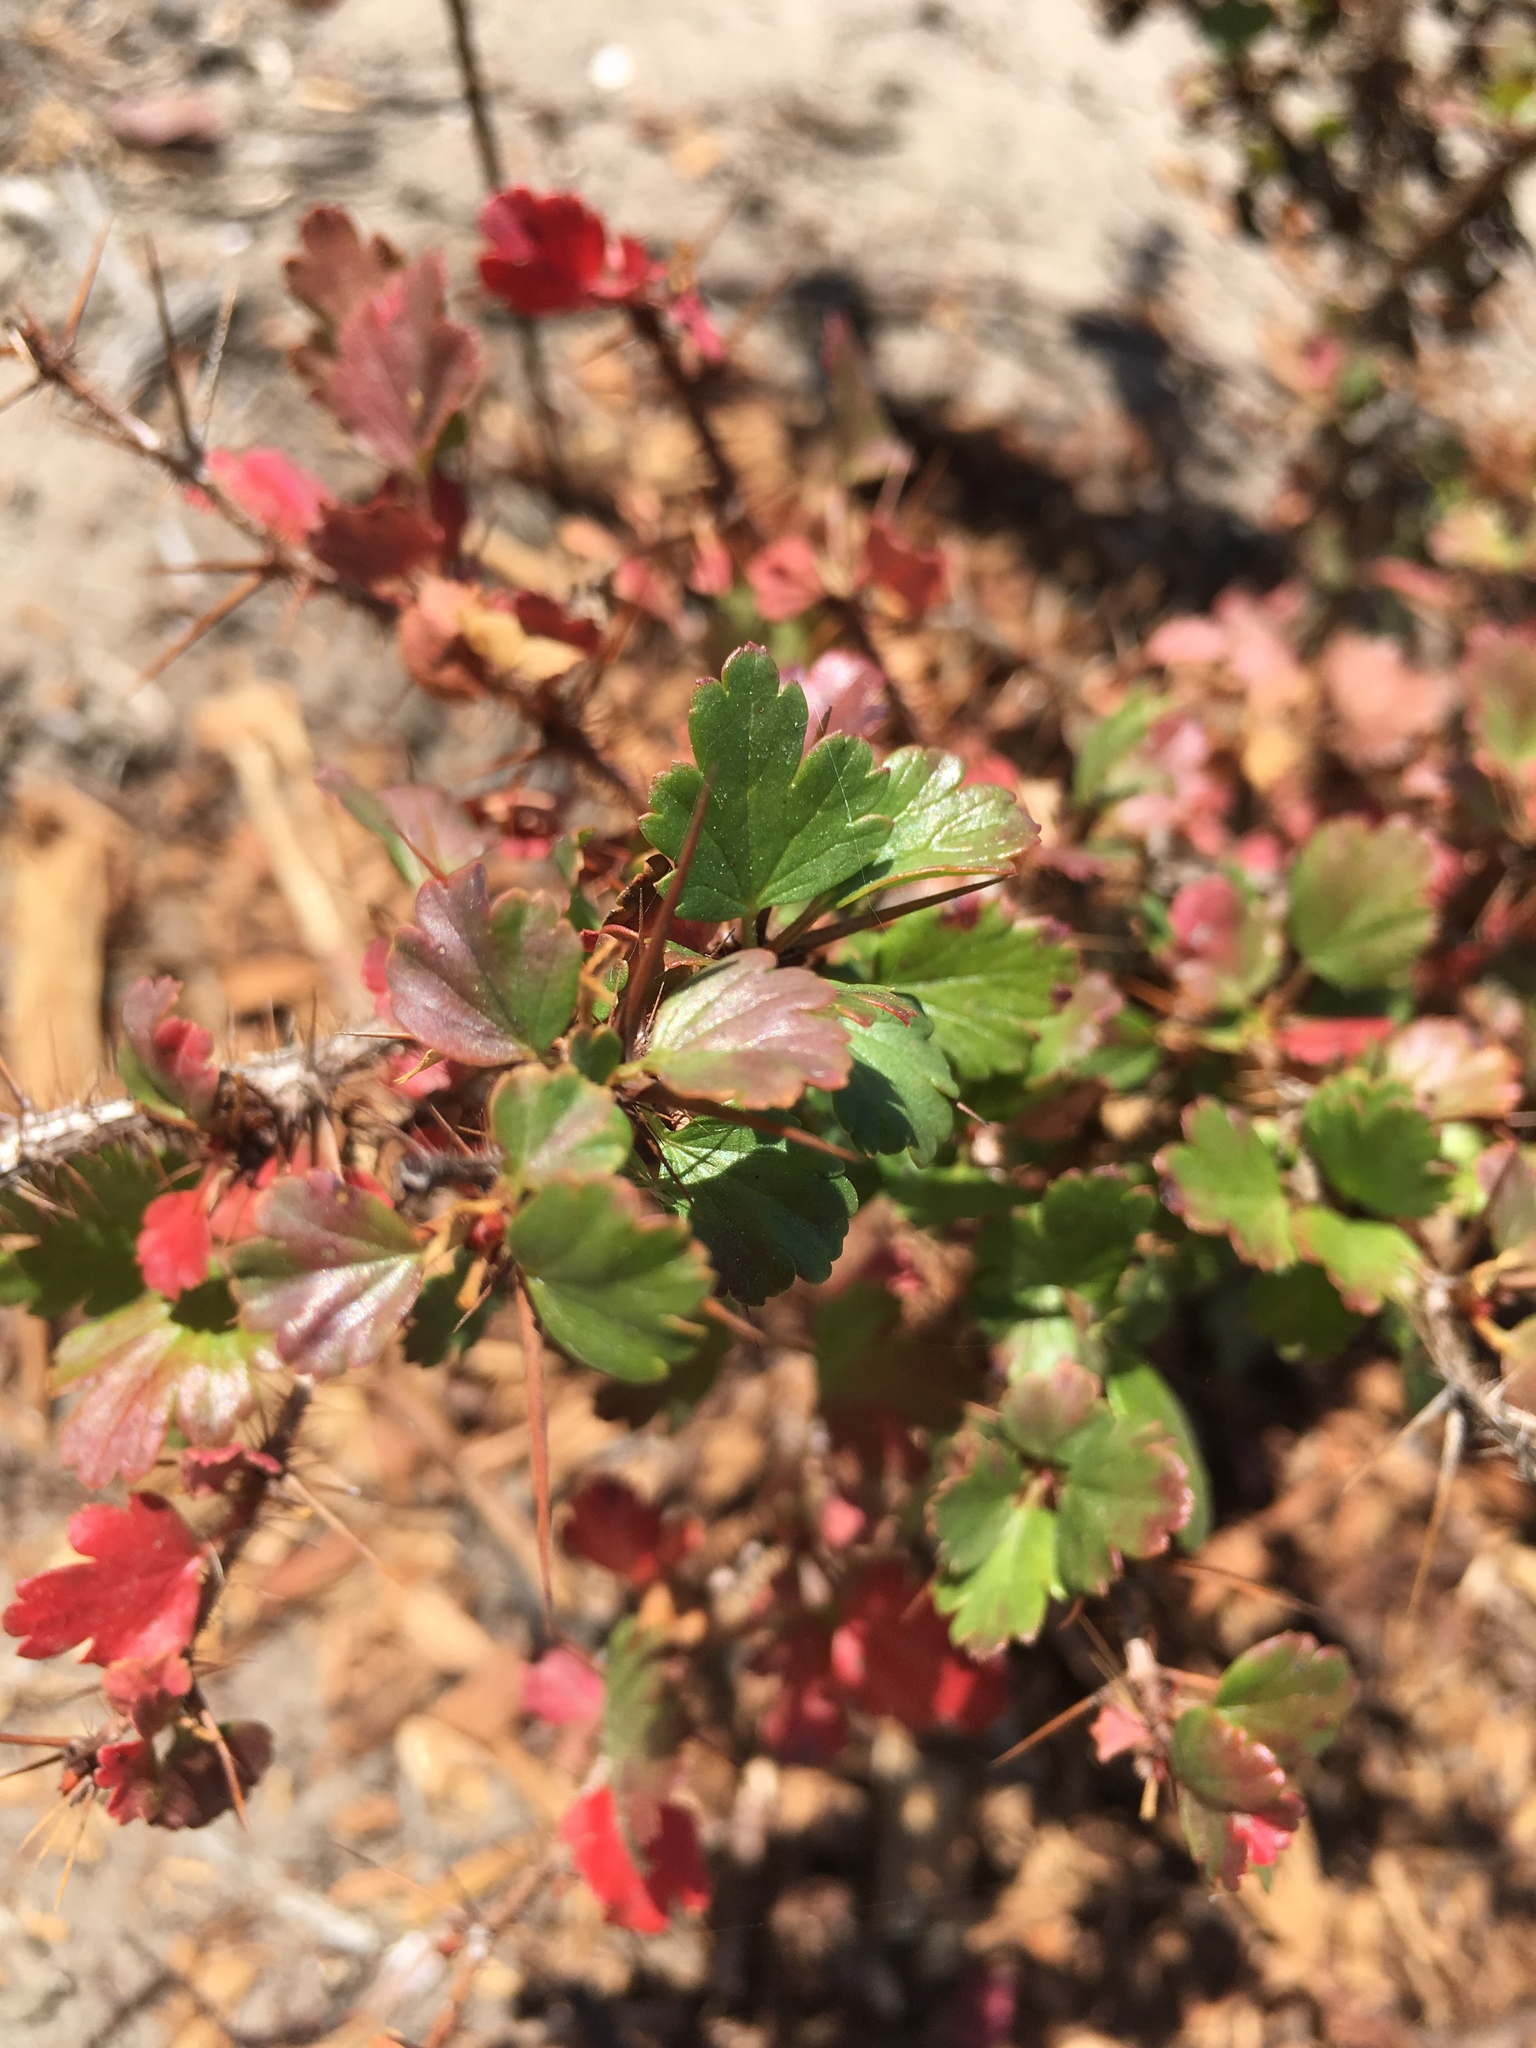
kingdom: Plantae
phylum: Tracheophyta
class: Magnoliopsida
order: Saxifragales
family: Grossulariaceae
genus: Ribes
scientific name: Ribes speciosum
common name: Fuchsia-flower gooseberry
